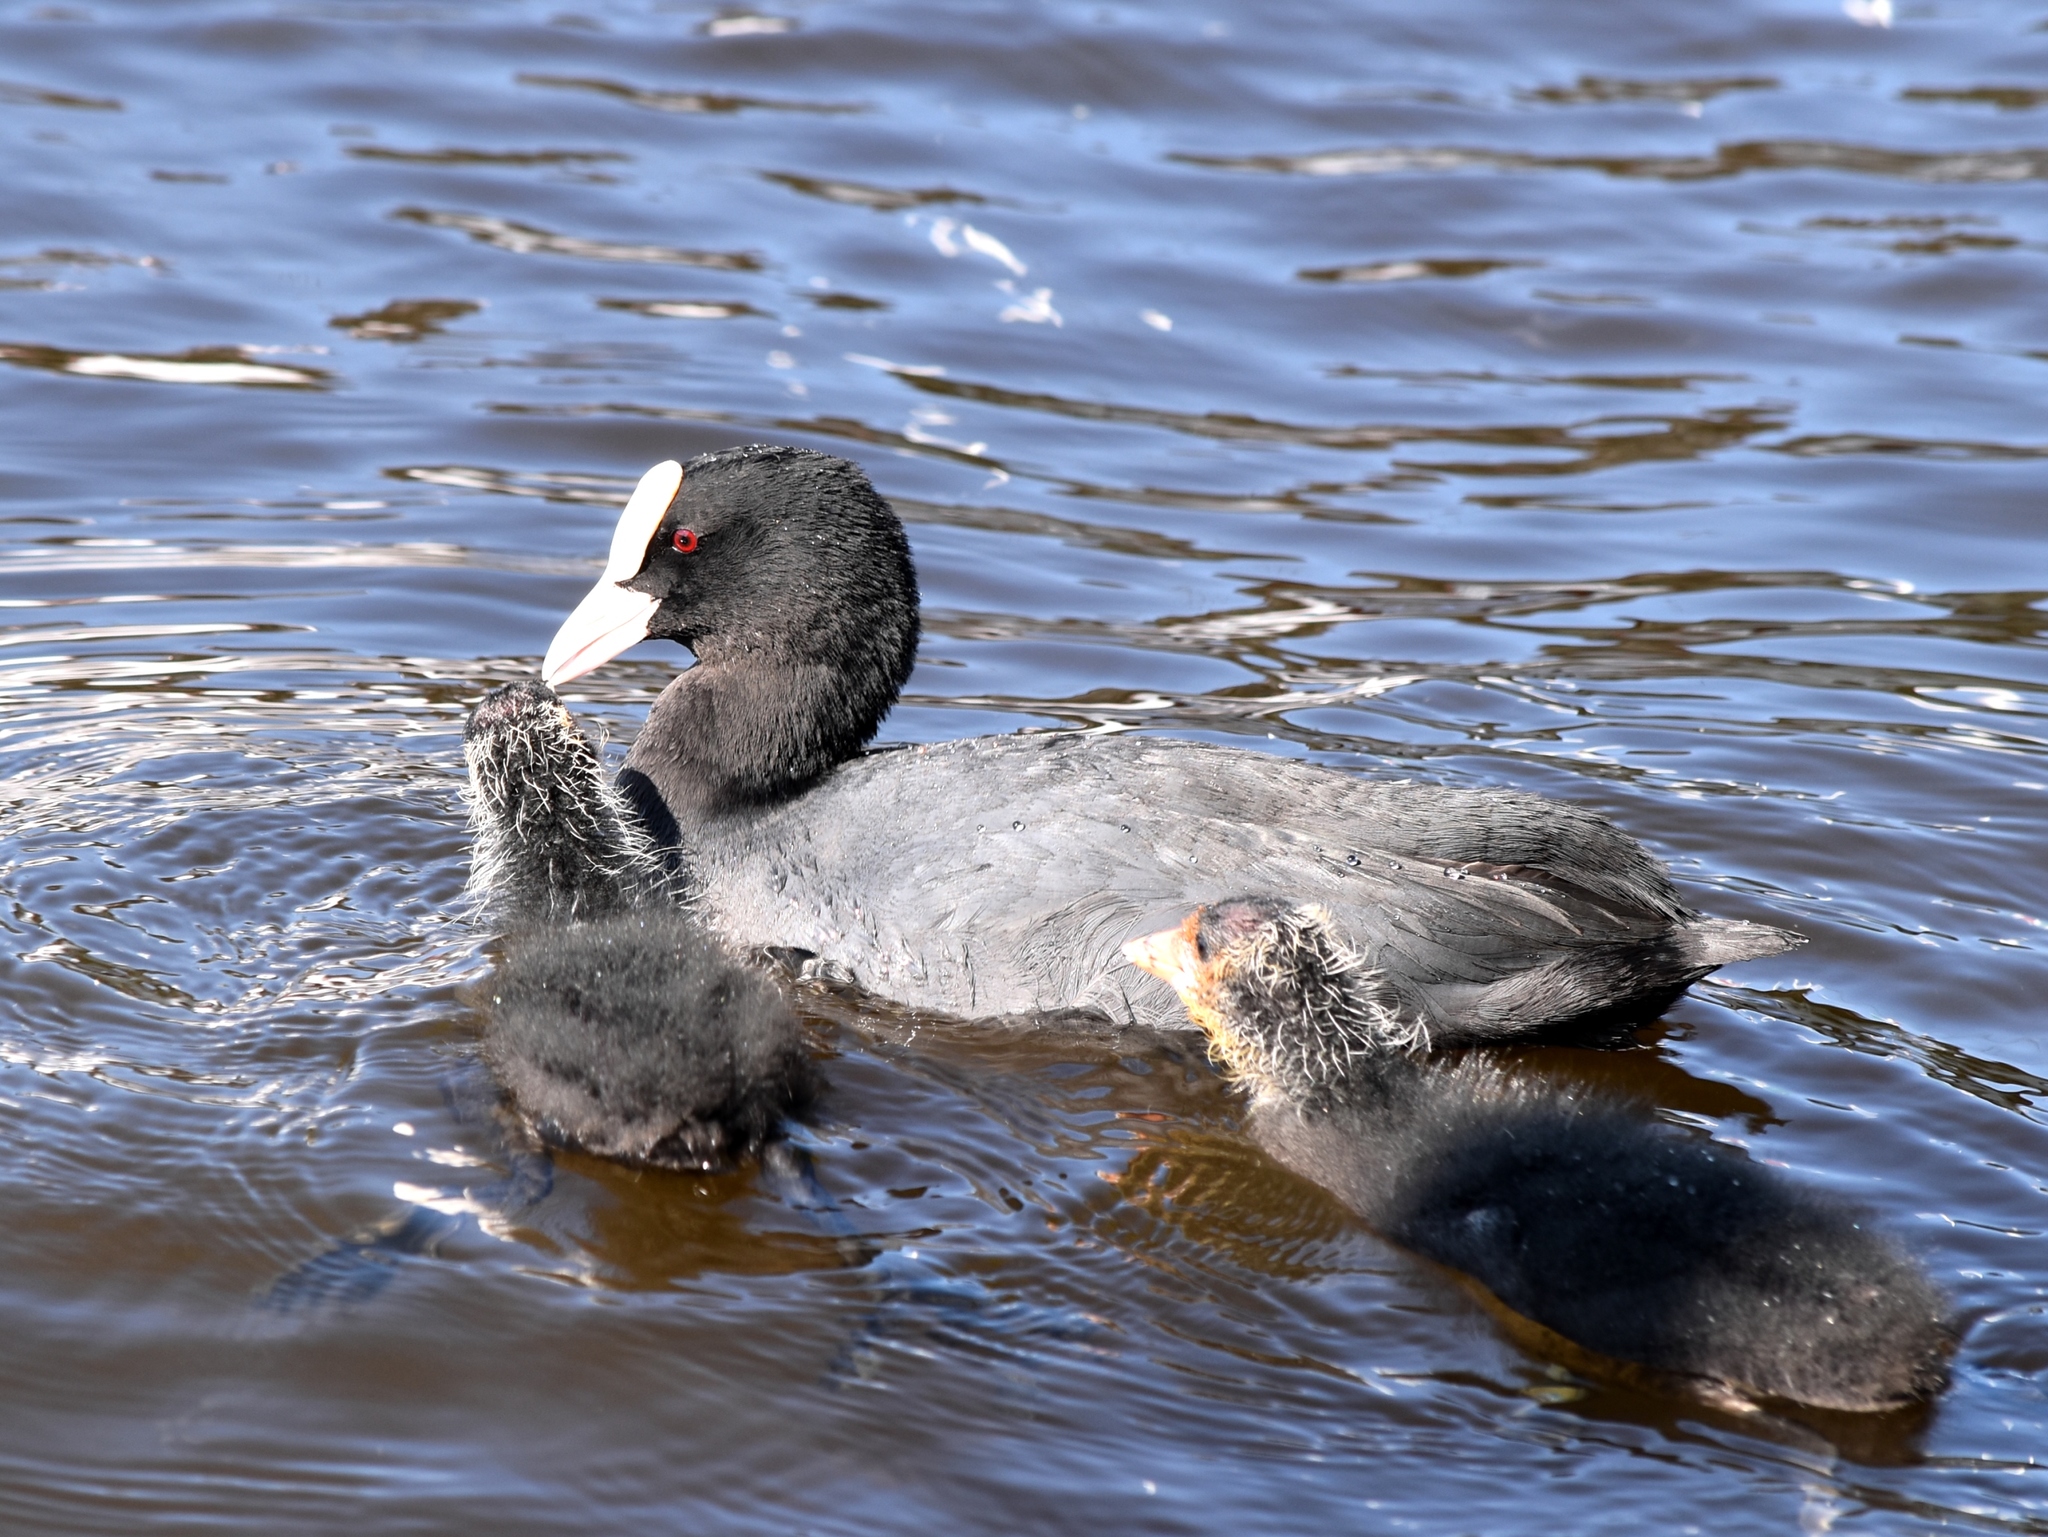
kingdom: Animalia
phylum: Chordata
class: Aves
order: Gruiformes
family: Rallidae
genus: Fulica
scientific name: Fulica atra
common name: Eurasian coot
